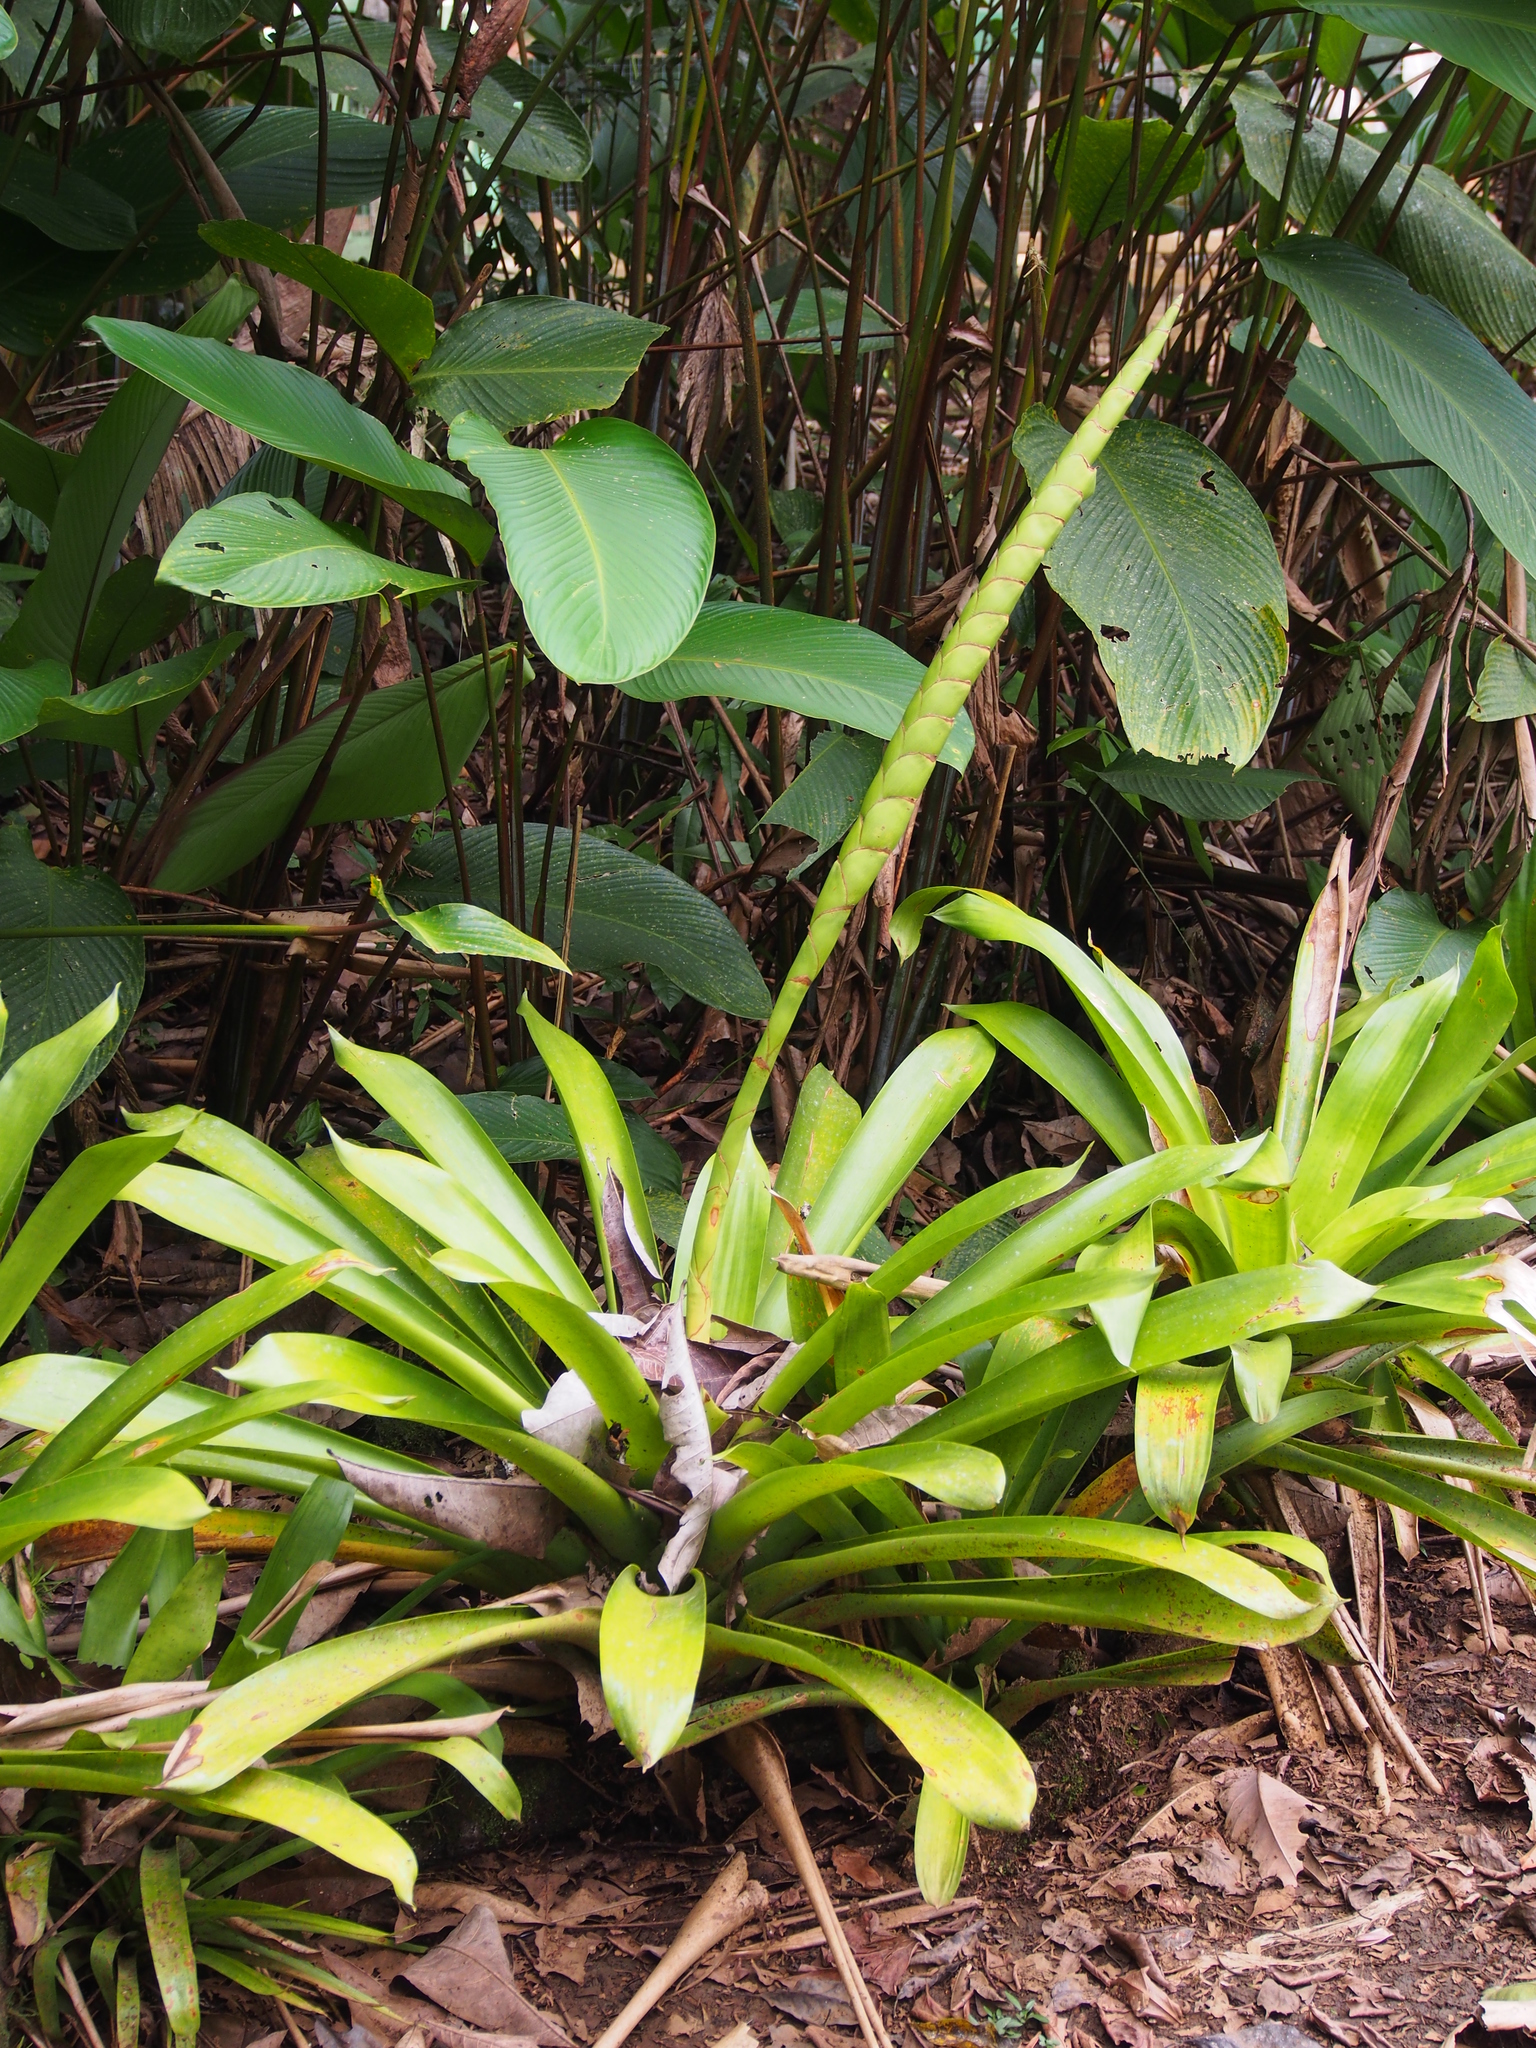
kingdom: Plantae
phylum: Tracheophyta
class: Liliopsida
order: Poales
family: Bromeliaceae
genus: Werauhia
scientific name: Werauhia gladioliflora
